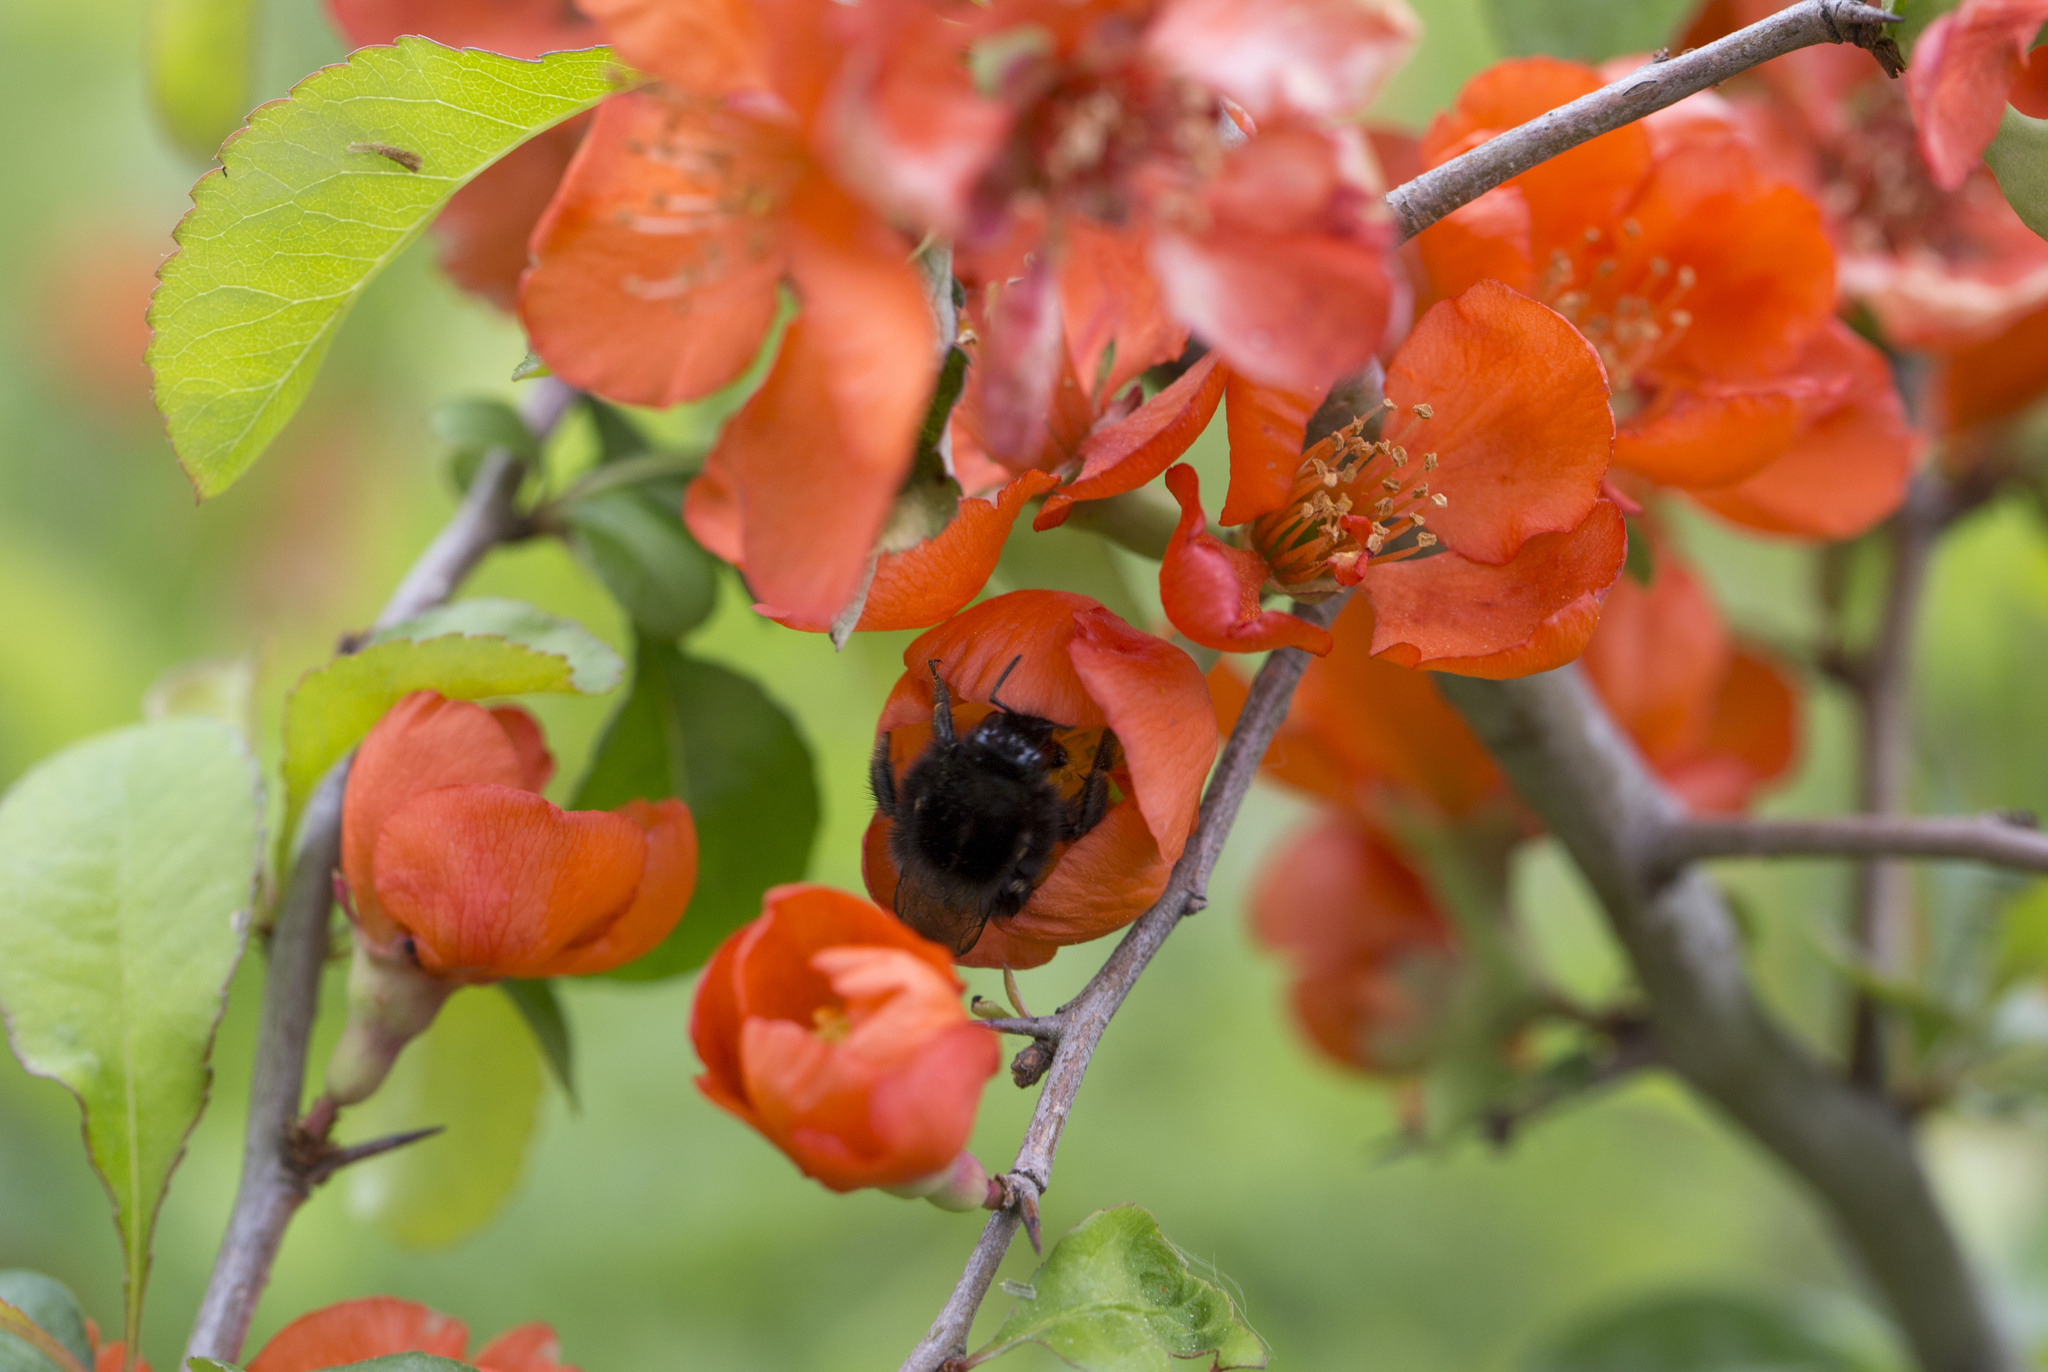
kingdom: Animalia
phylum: Arthropoda
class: Insecta
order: Hymenoptera
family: Apidae
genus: Bombus
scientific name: Bombus
